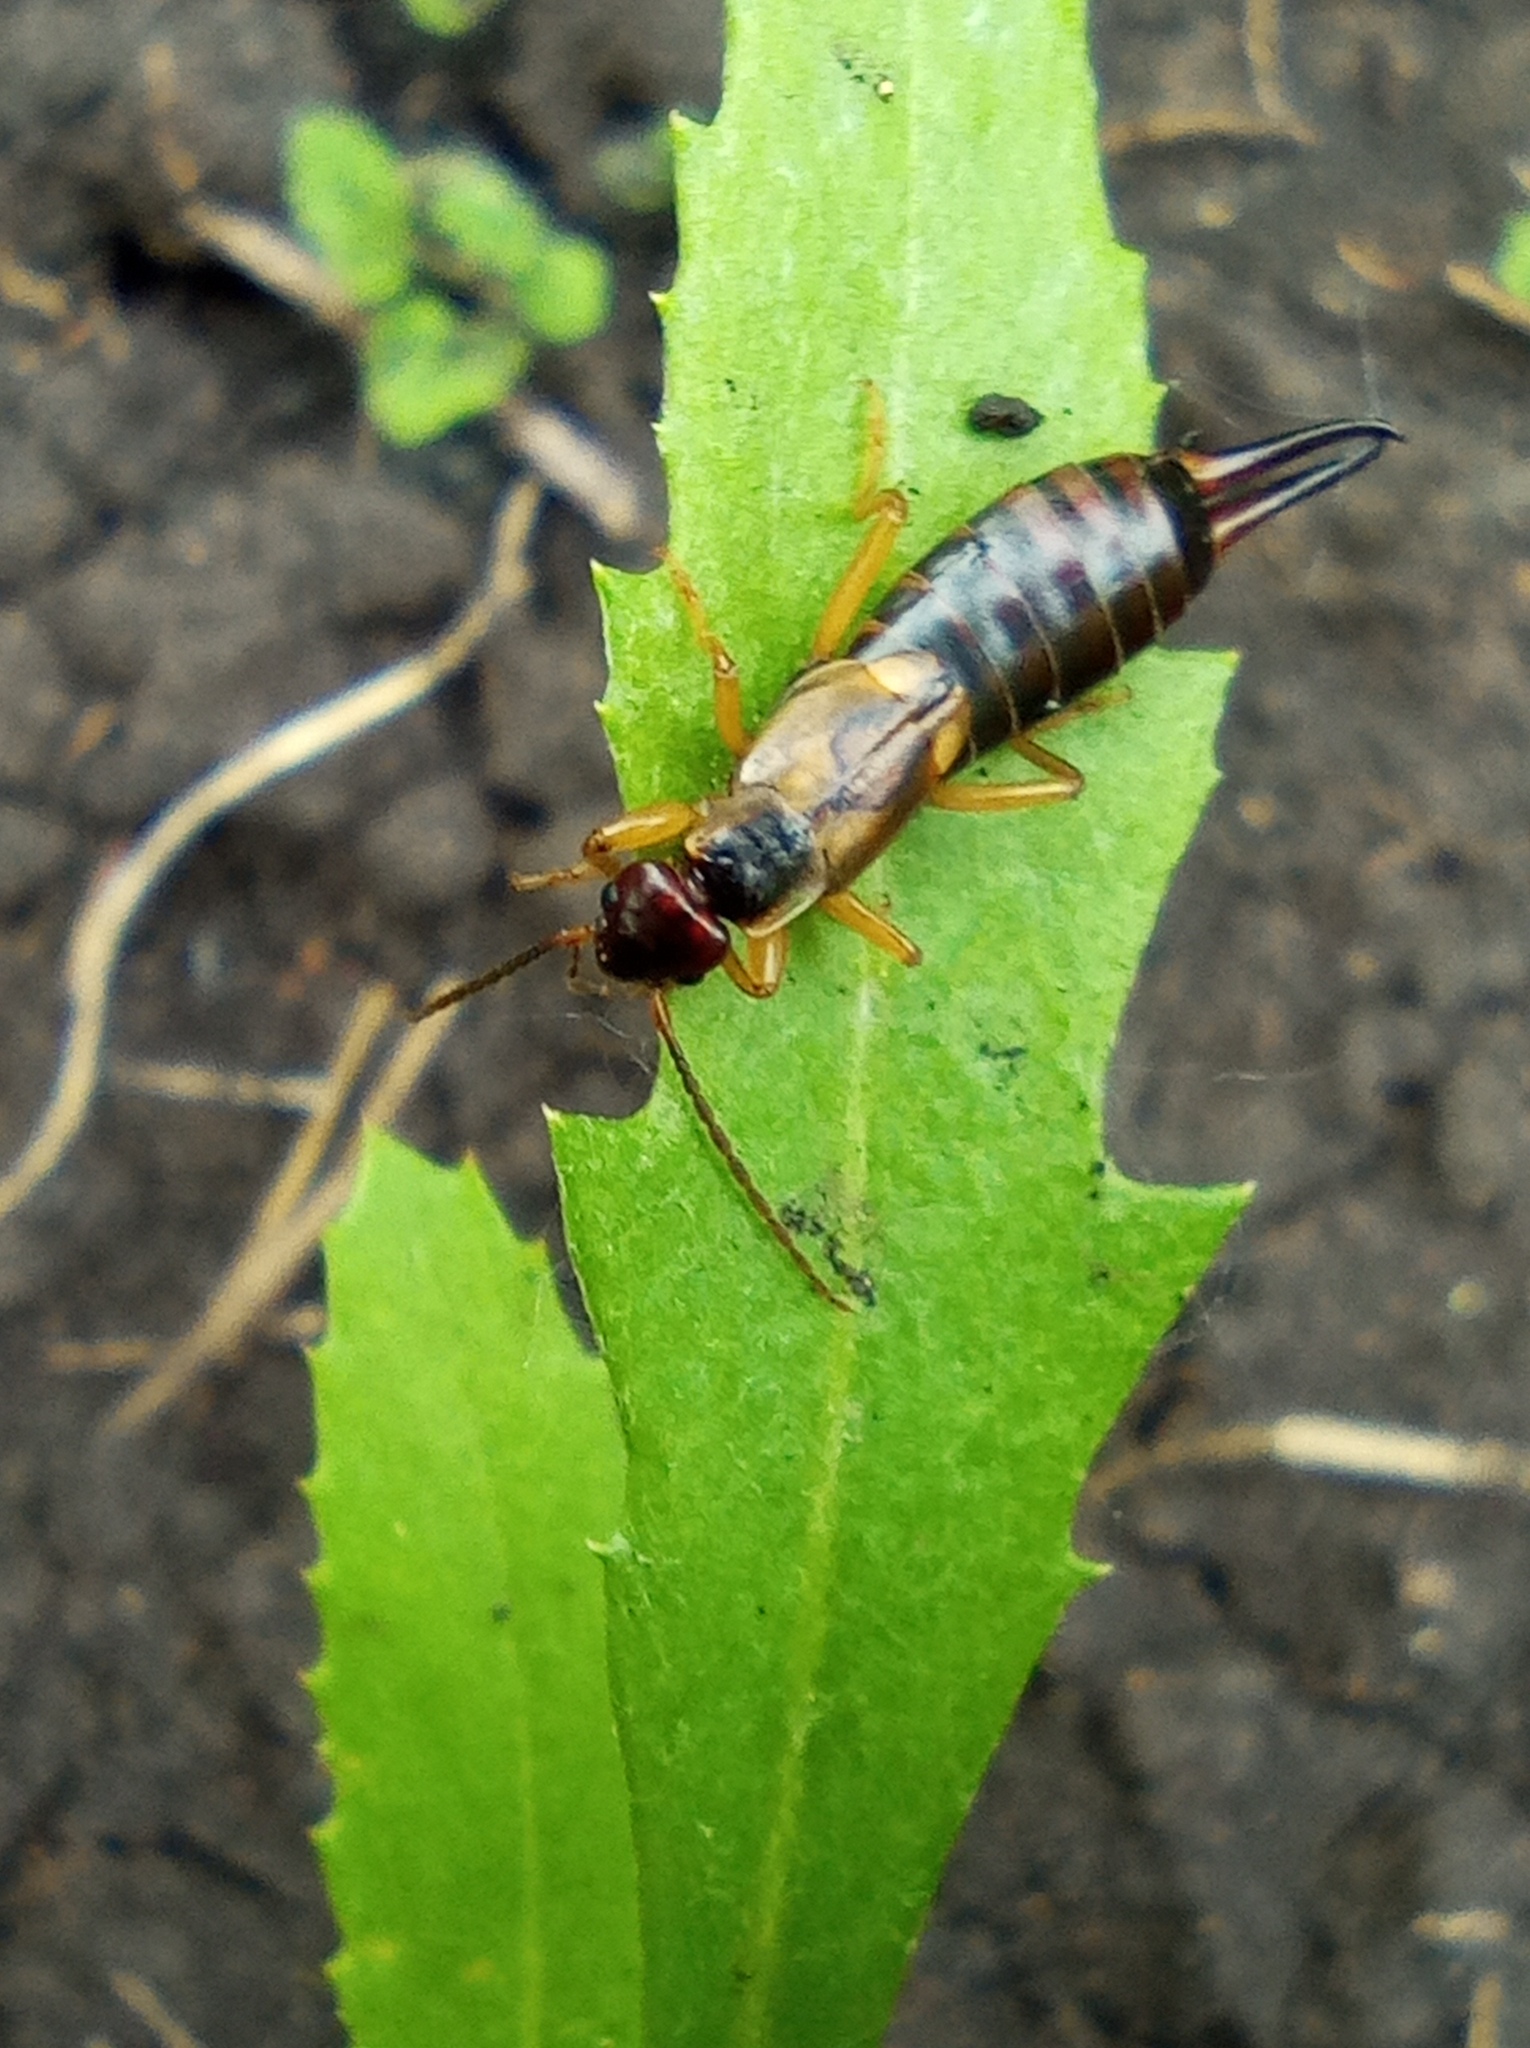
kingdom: Animalia
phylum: Arthropoda
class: Insecta
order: Dermaptera
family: Forficulidae
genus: Forficula
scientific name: Forficula
